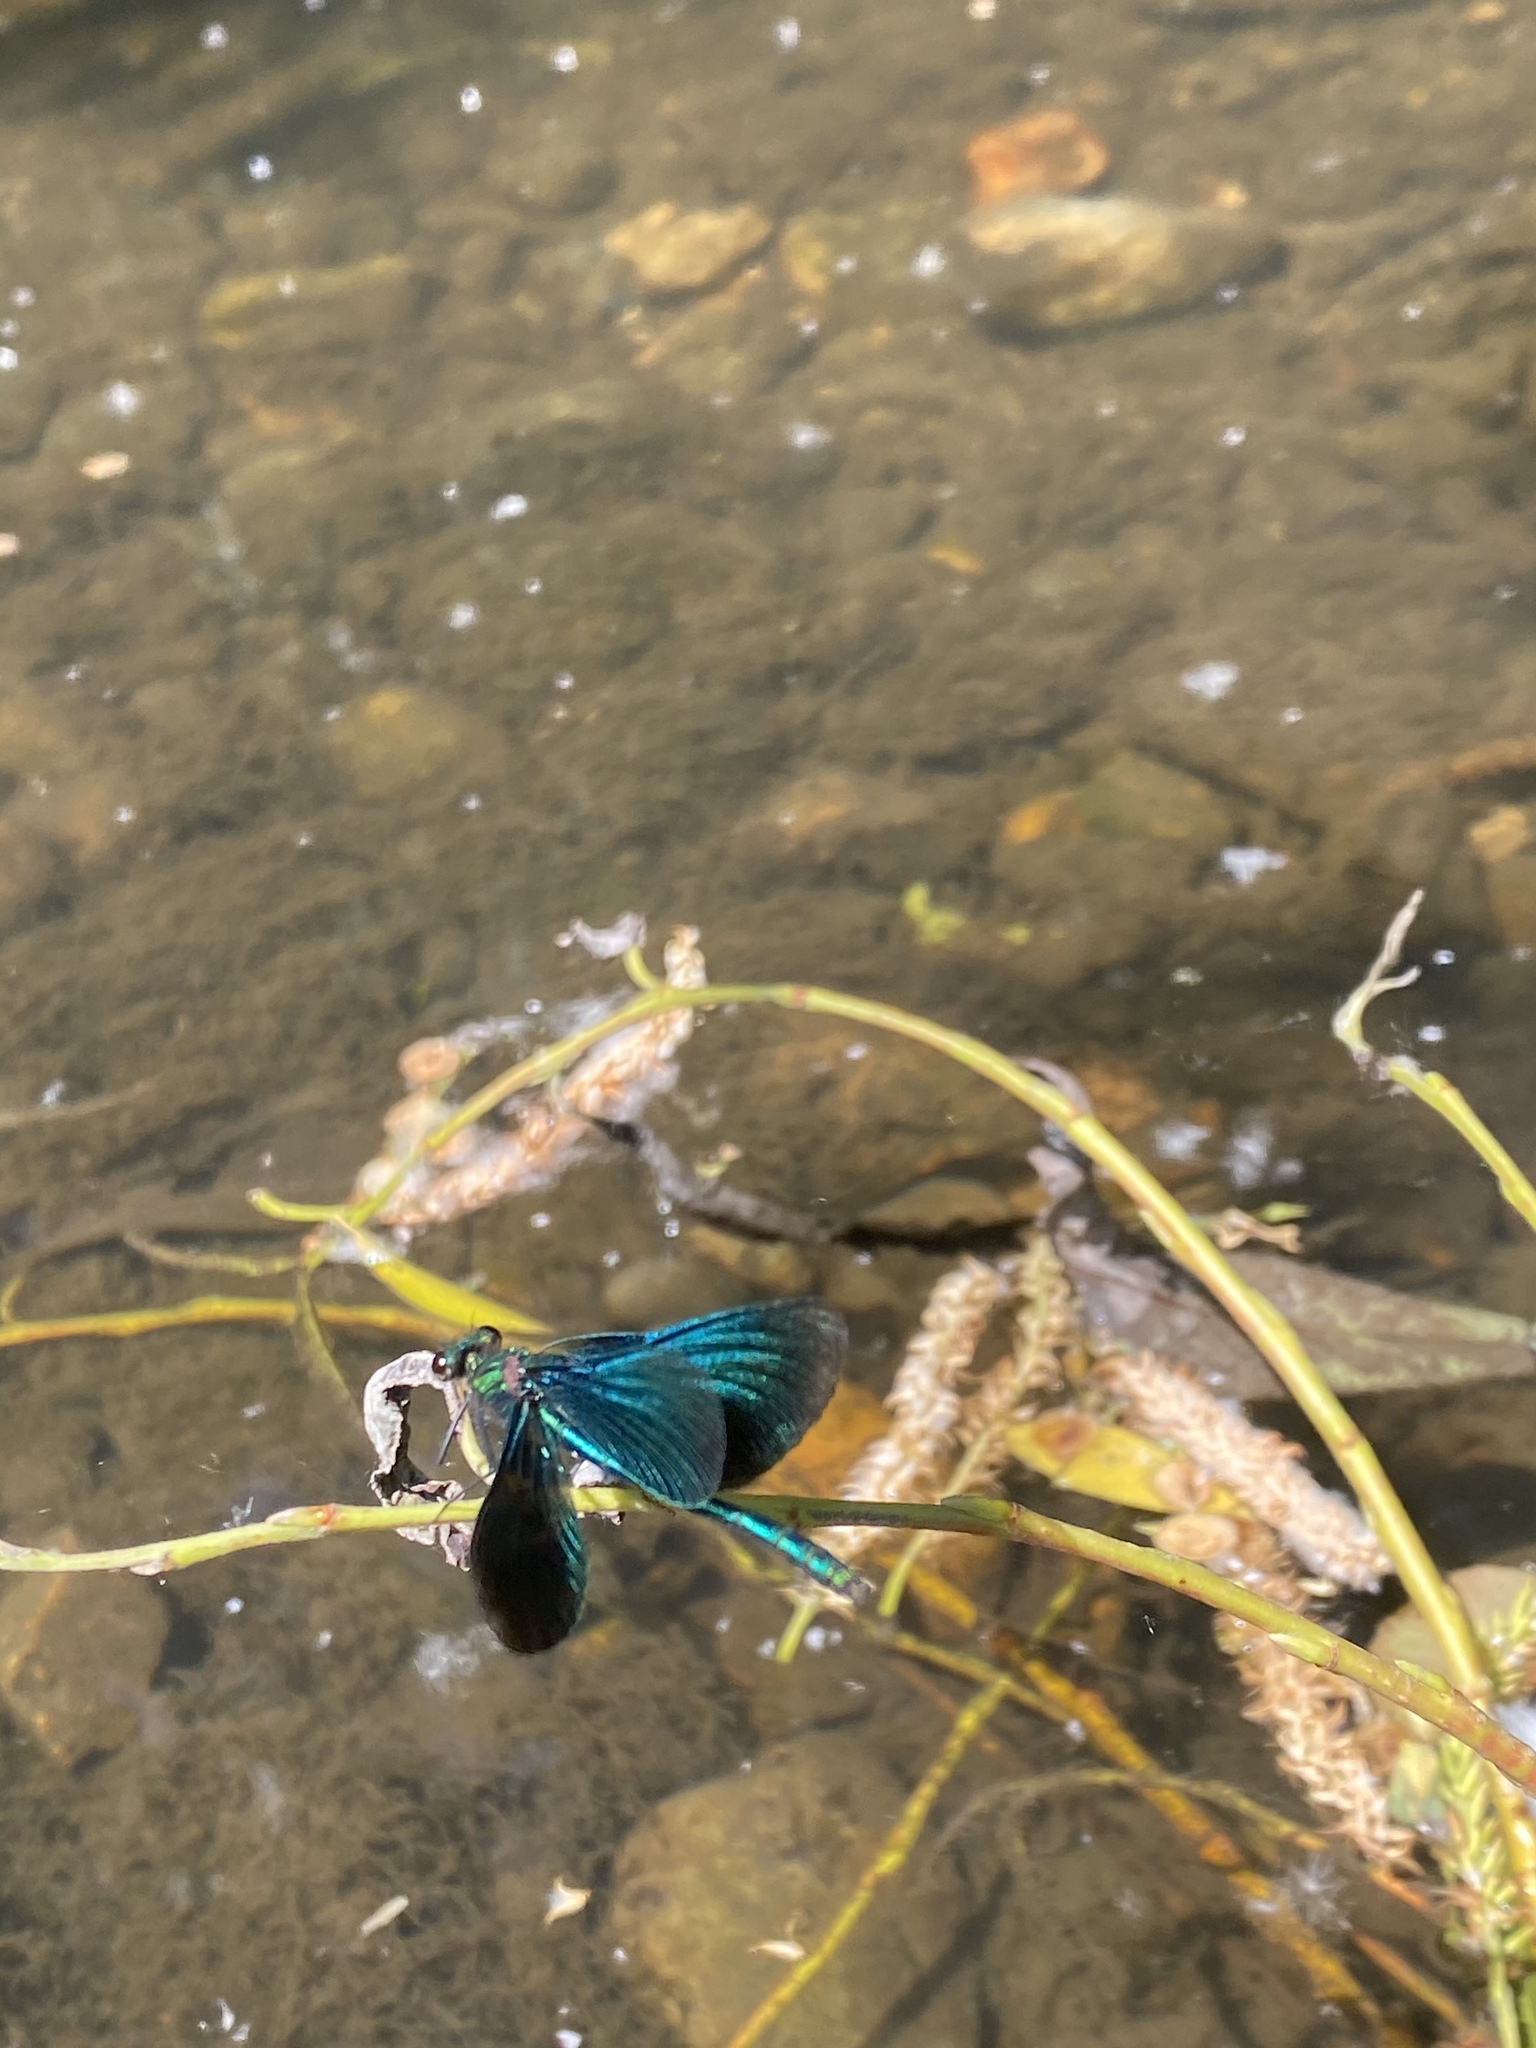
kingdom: Animalia
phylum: Arthropoda
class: Insecta
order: Odonata
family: Calopterygidae
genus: Calopteryx
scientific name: Calopteryx virgo
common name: Beautiful demoiselle
